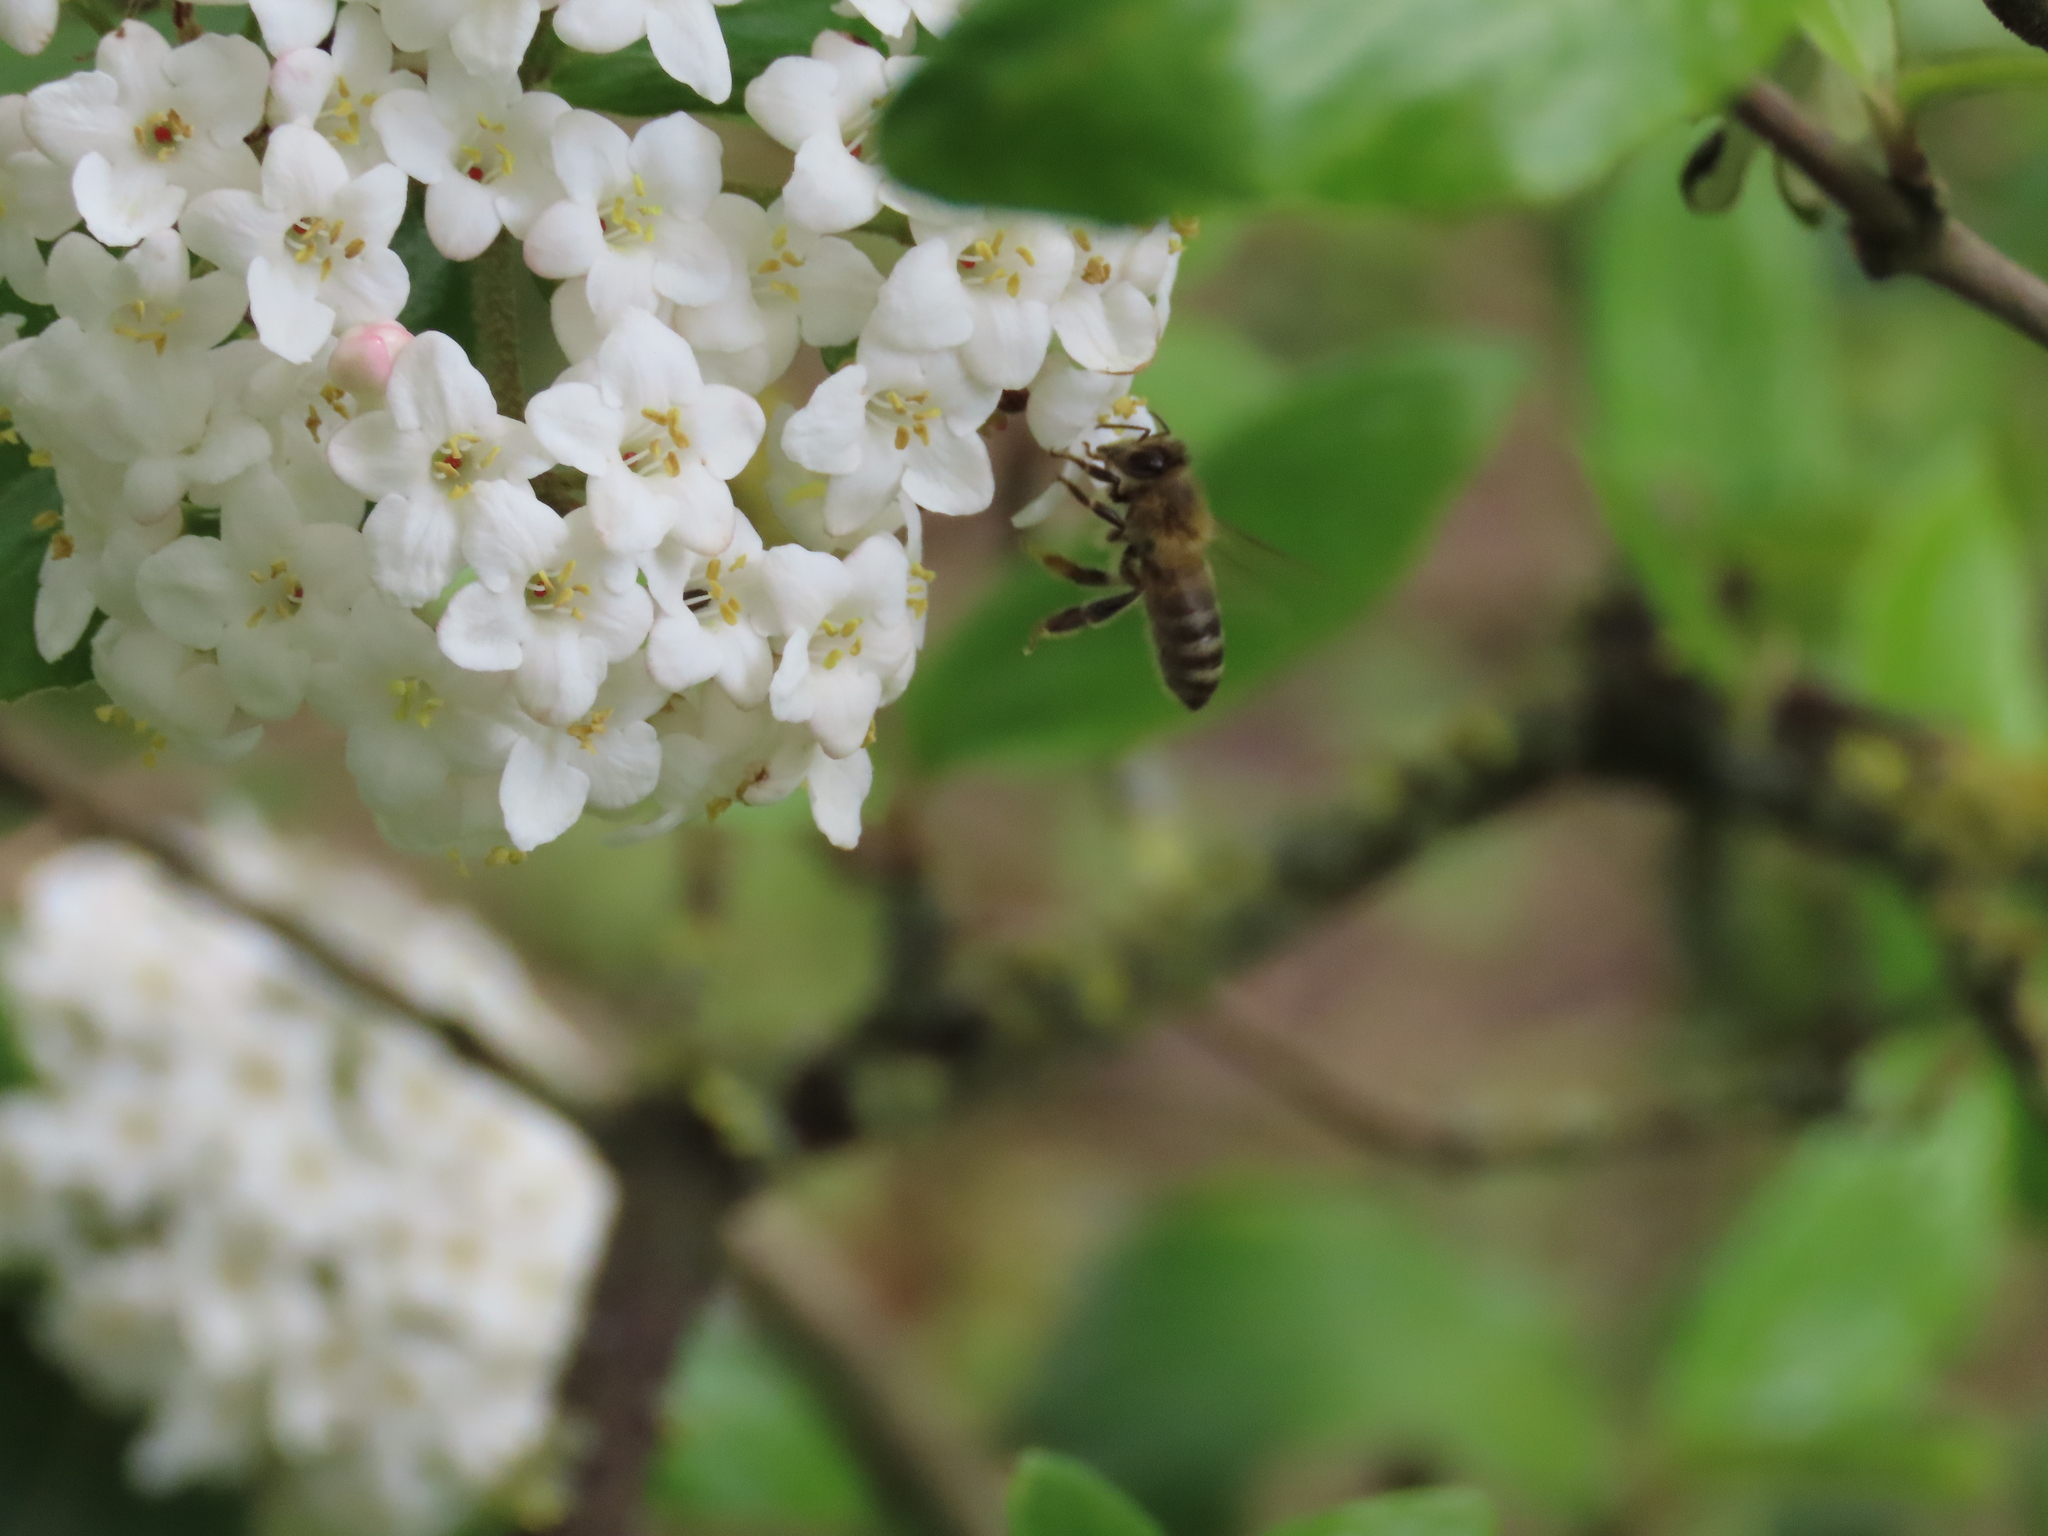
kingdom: Animalia
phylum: Arthropoda
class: Insecta
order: Hymenoptera
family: Apidae
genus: Apis
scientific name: Apis mellifera
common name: Honey bee
